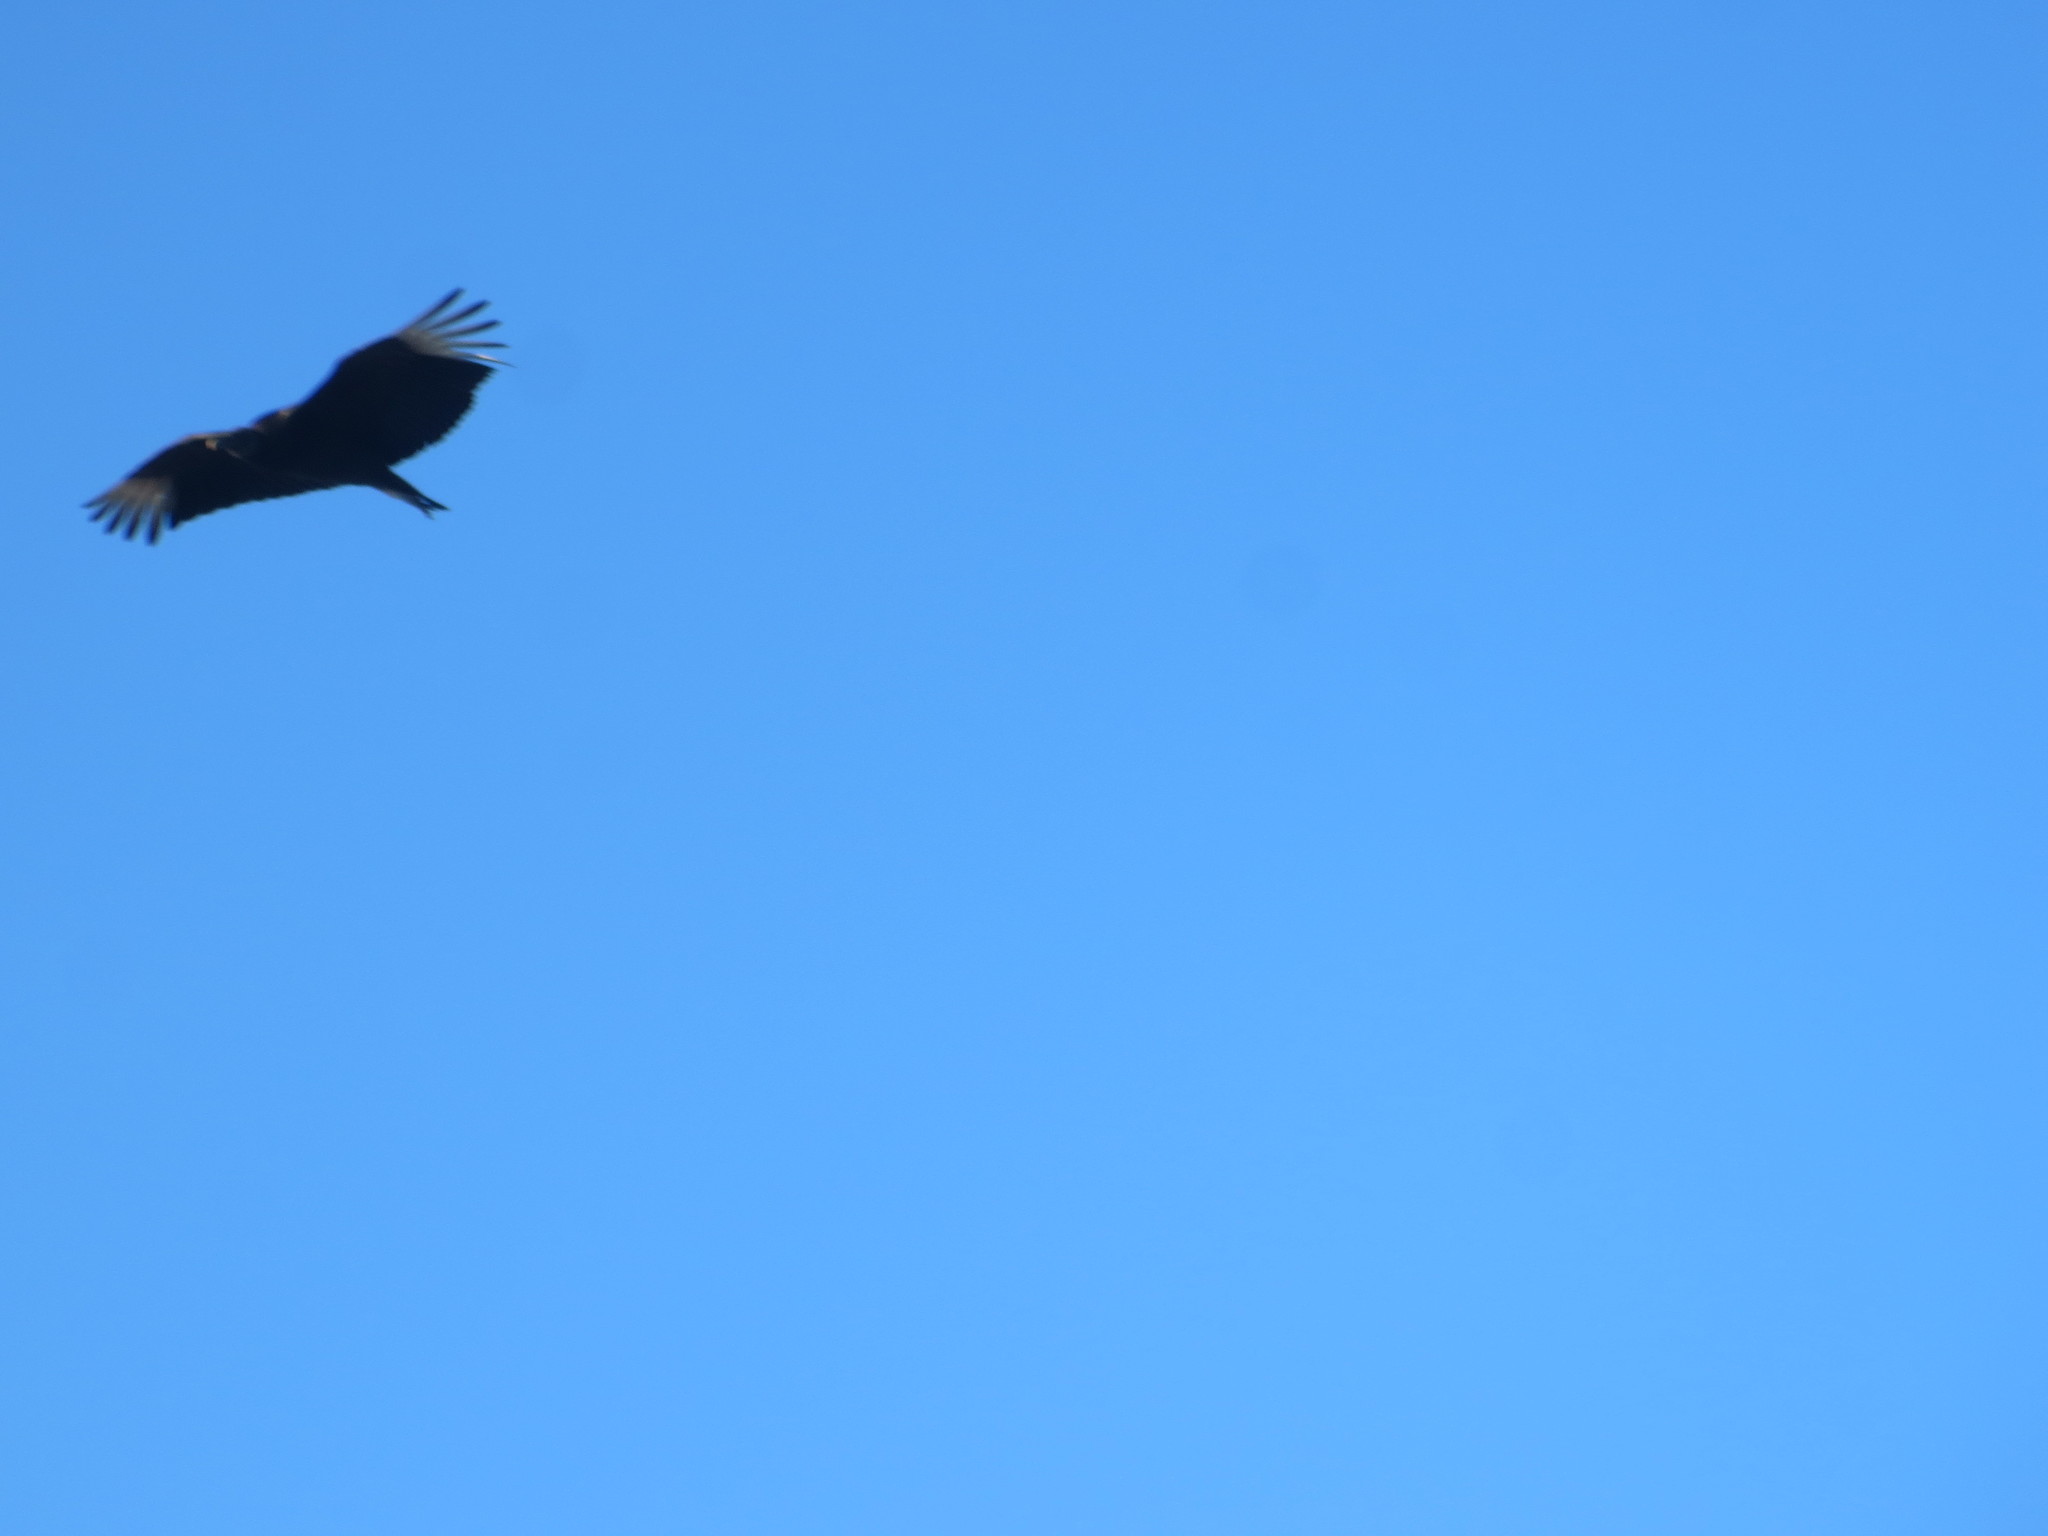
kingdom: Animalia
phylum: Chordata
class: Aves
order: Accipitriformes
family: Cathartidae
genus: Coragyps
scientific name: Coragyps atratus
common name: Black vulture
